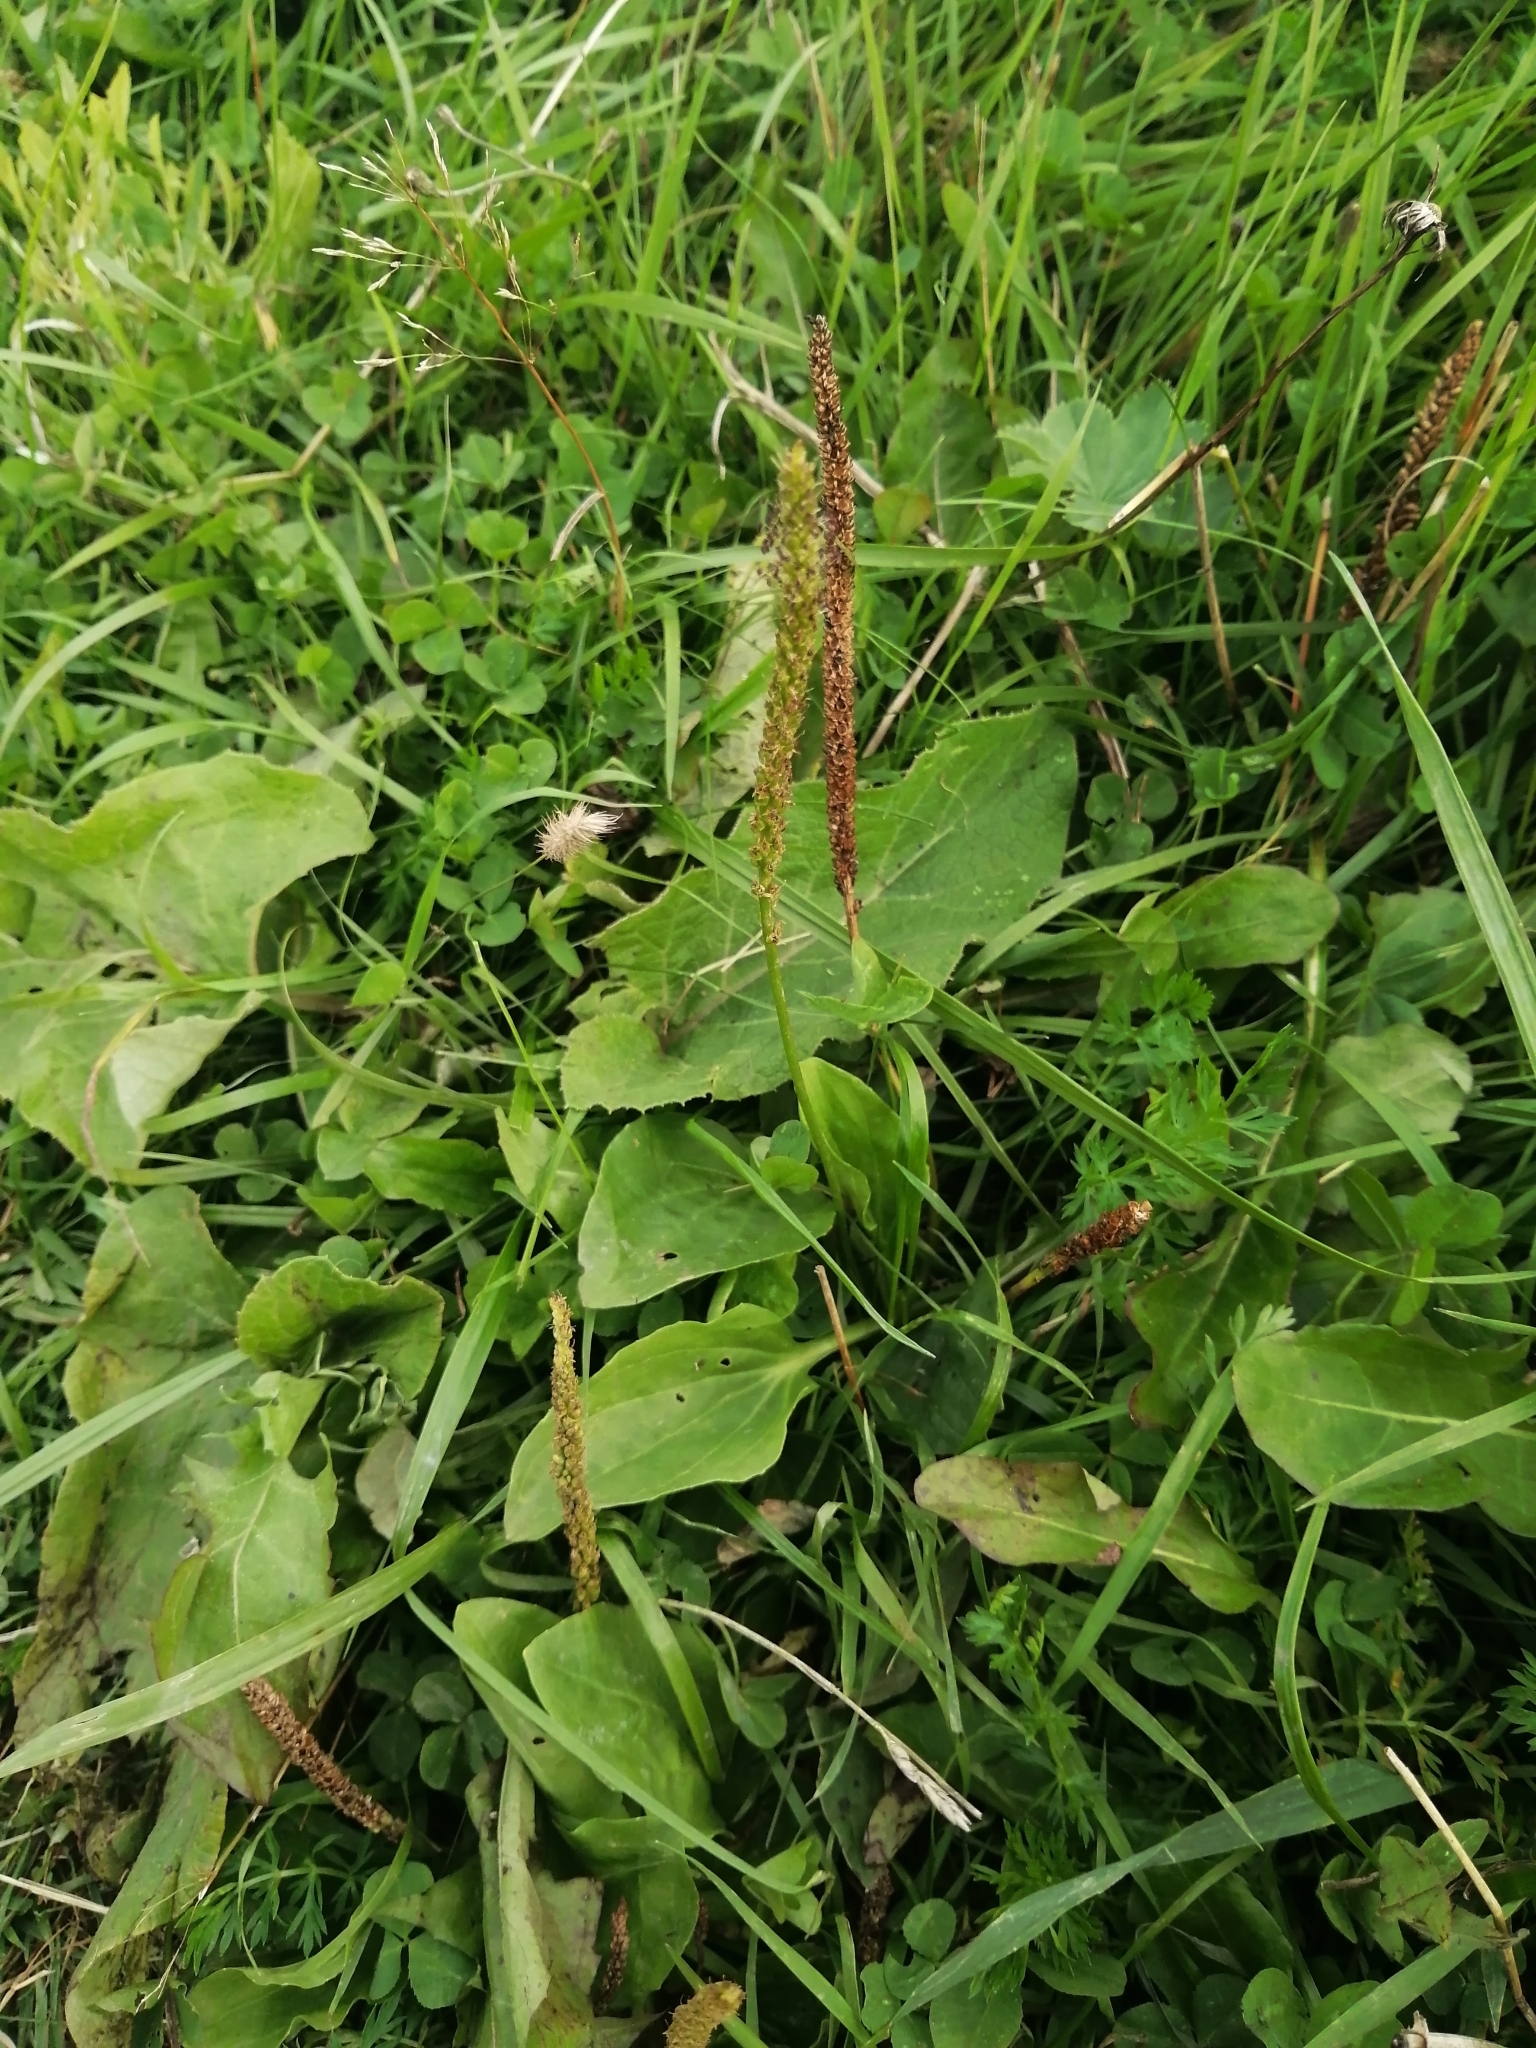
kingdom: Plantae
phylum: Tracheophyta
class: Magnoliopsida
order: Lamiales
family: Plantaginaceae
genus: Plantago
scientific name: Plantago major
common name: Common plantain
